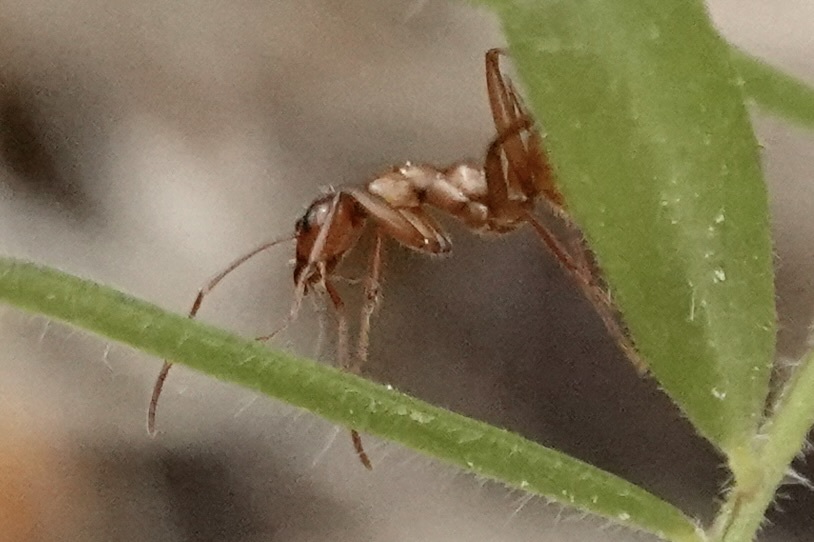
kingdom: Animalia
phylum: Arthropoda
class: Insecta
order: Hymenoptera
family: Formicidae
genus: Formica
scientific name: Formica
